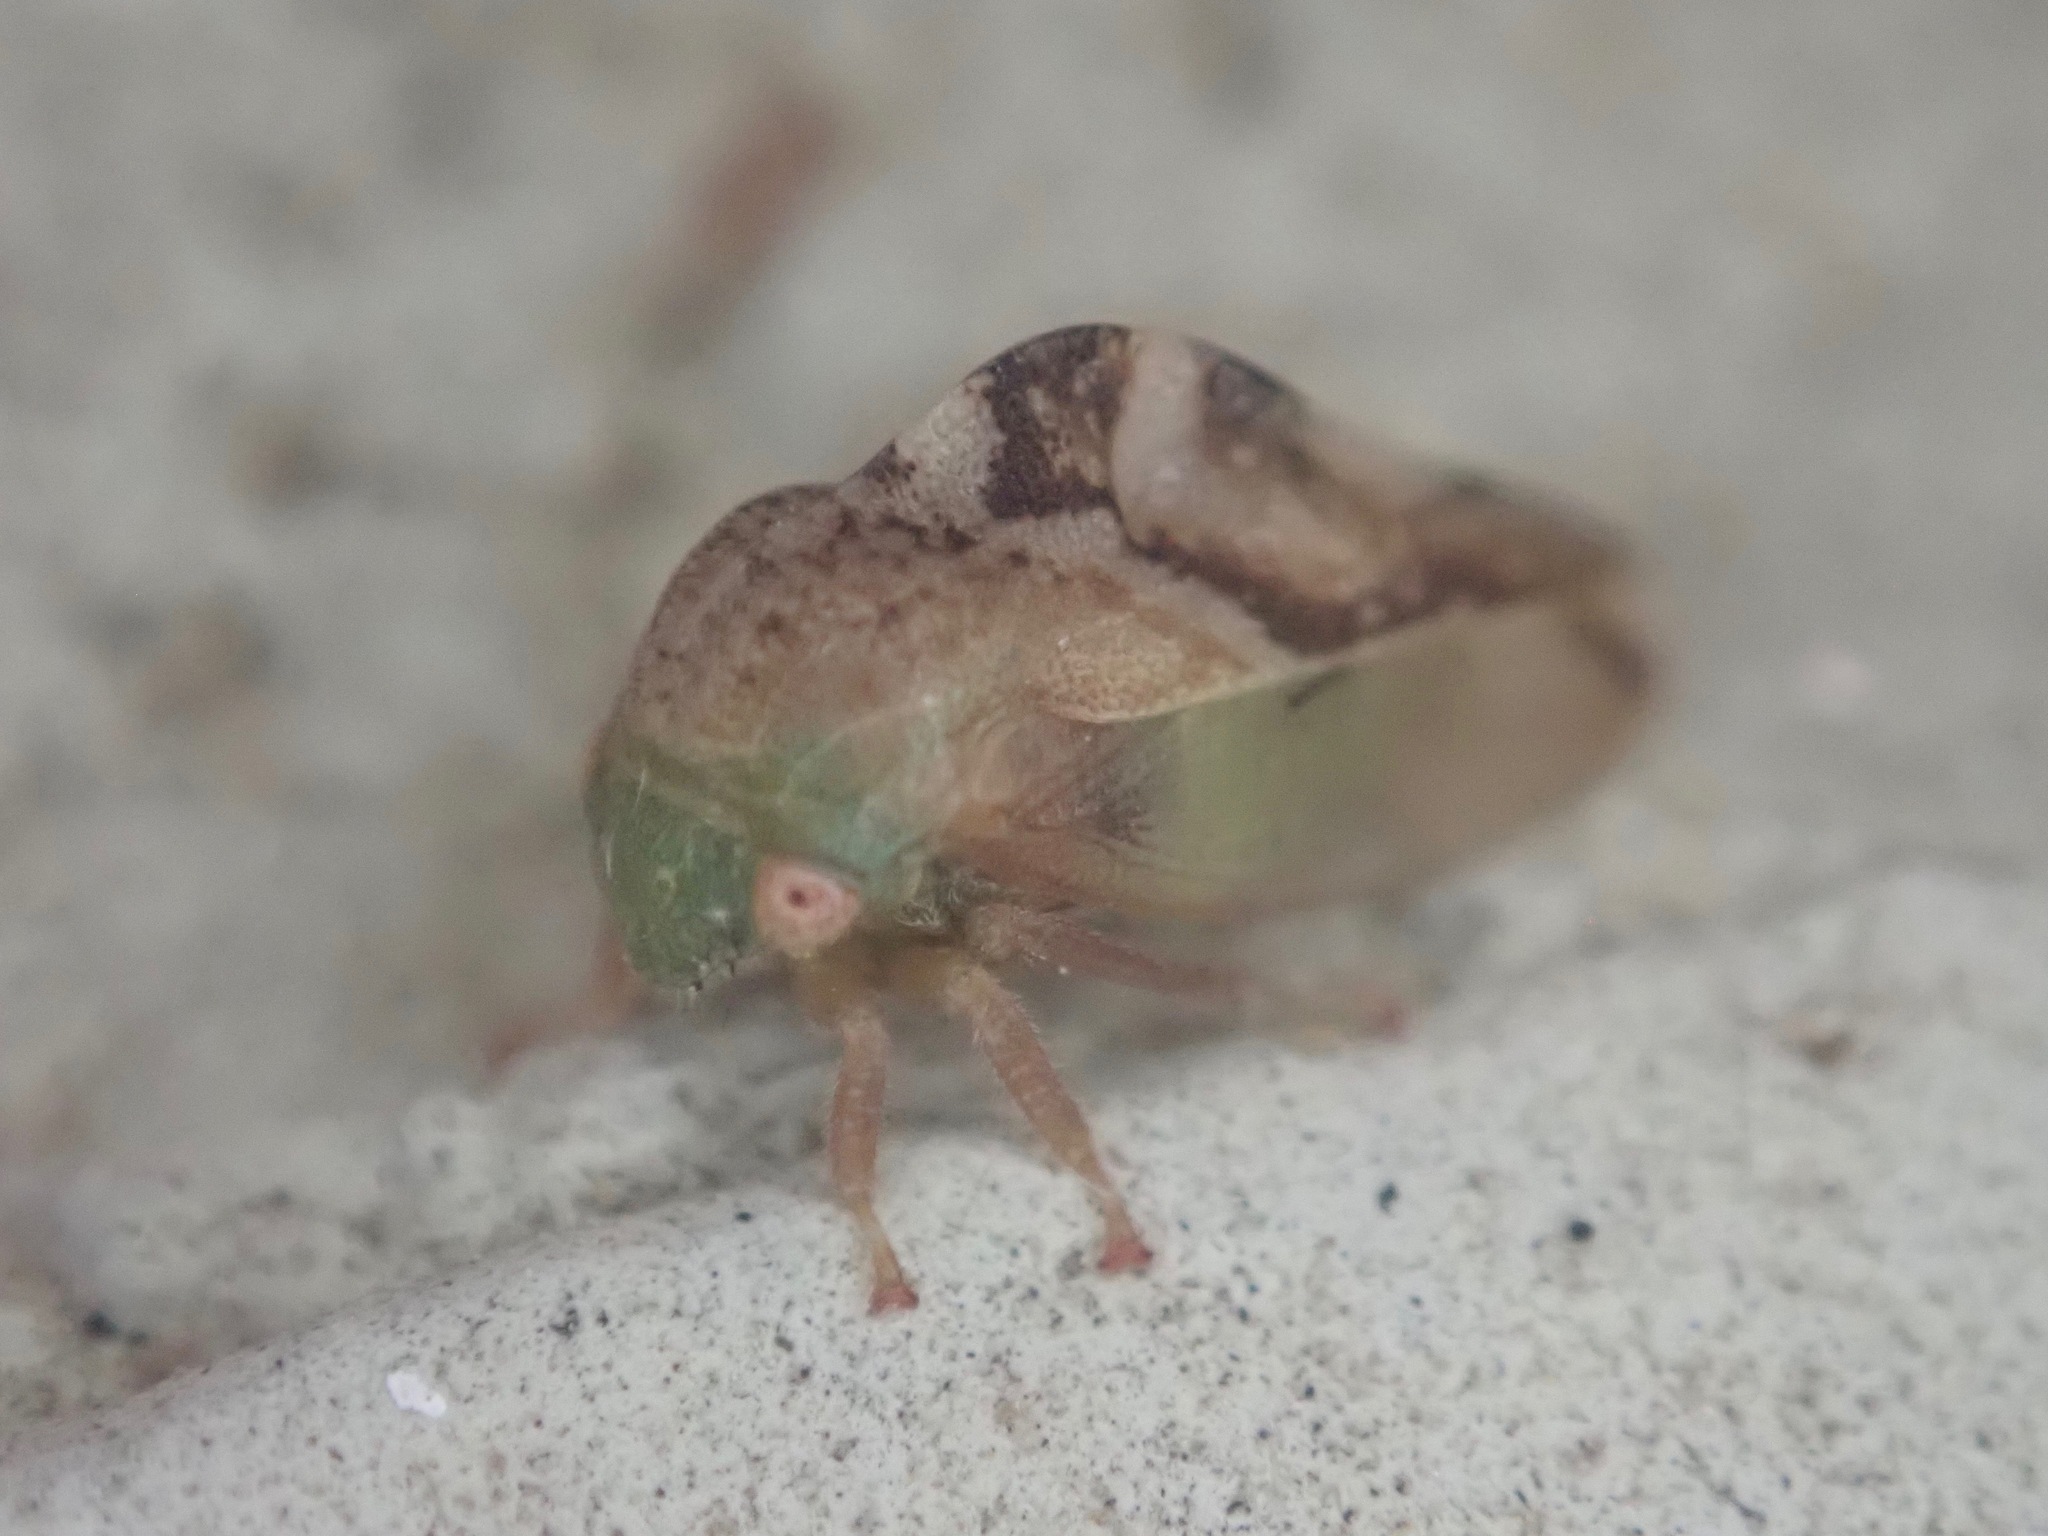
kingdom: Animalia
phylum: Arthropoda
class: Insecta
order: Hemiptera
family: Membracidae
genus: Cyrtolobus
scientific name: Cyrtolobus fenestrata
